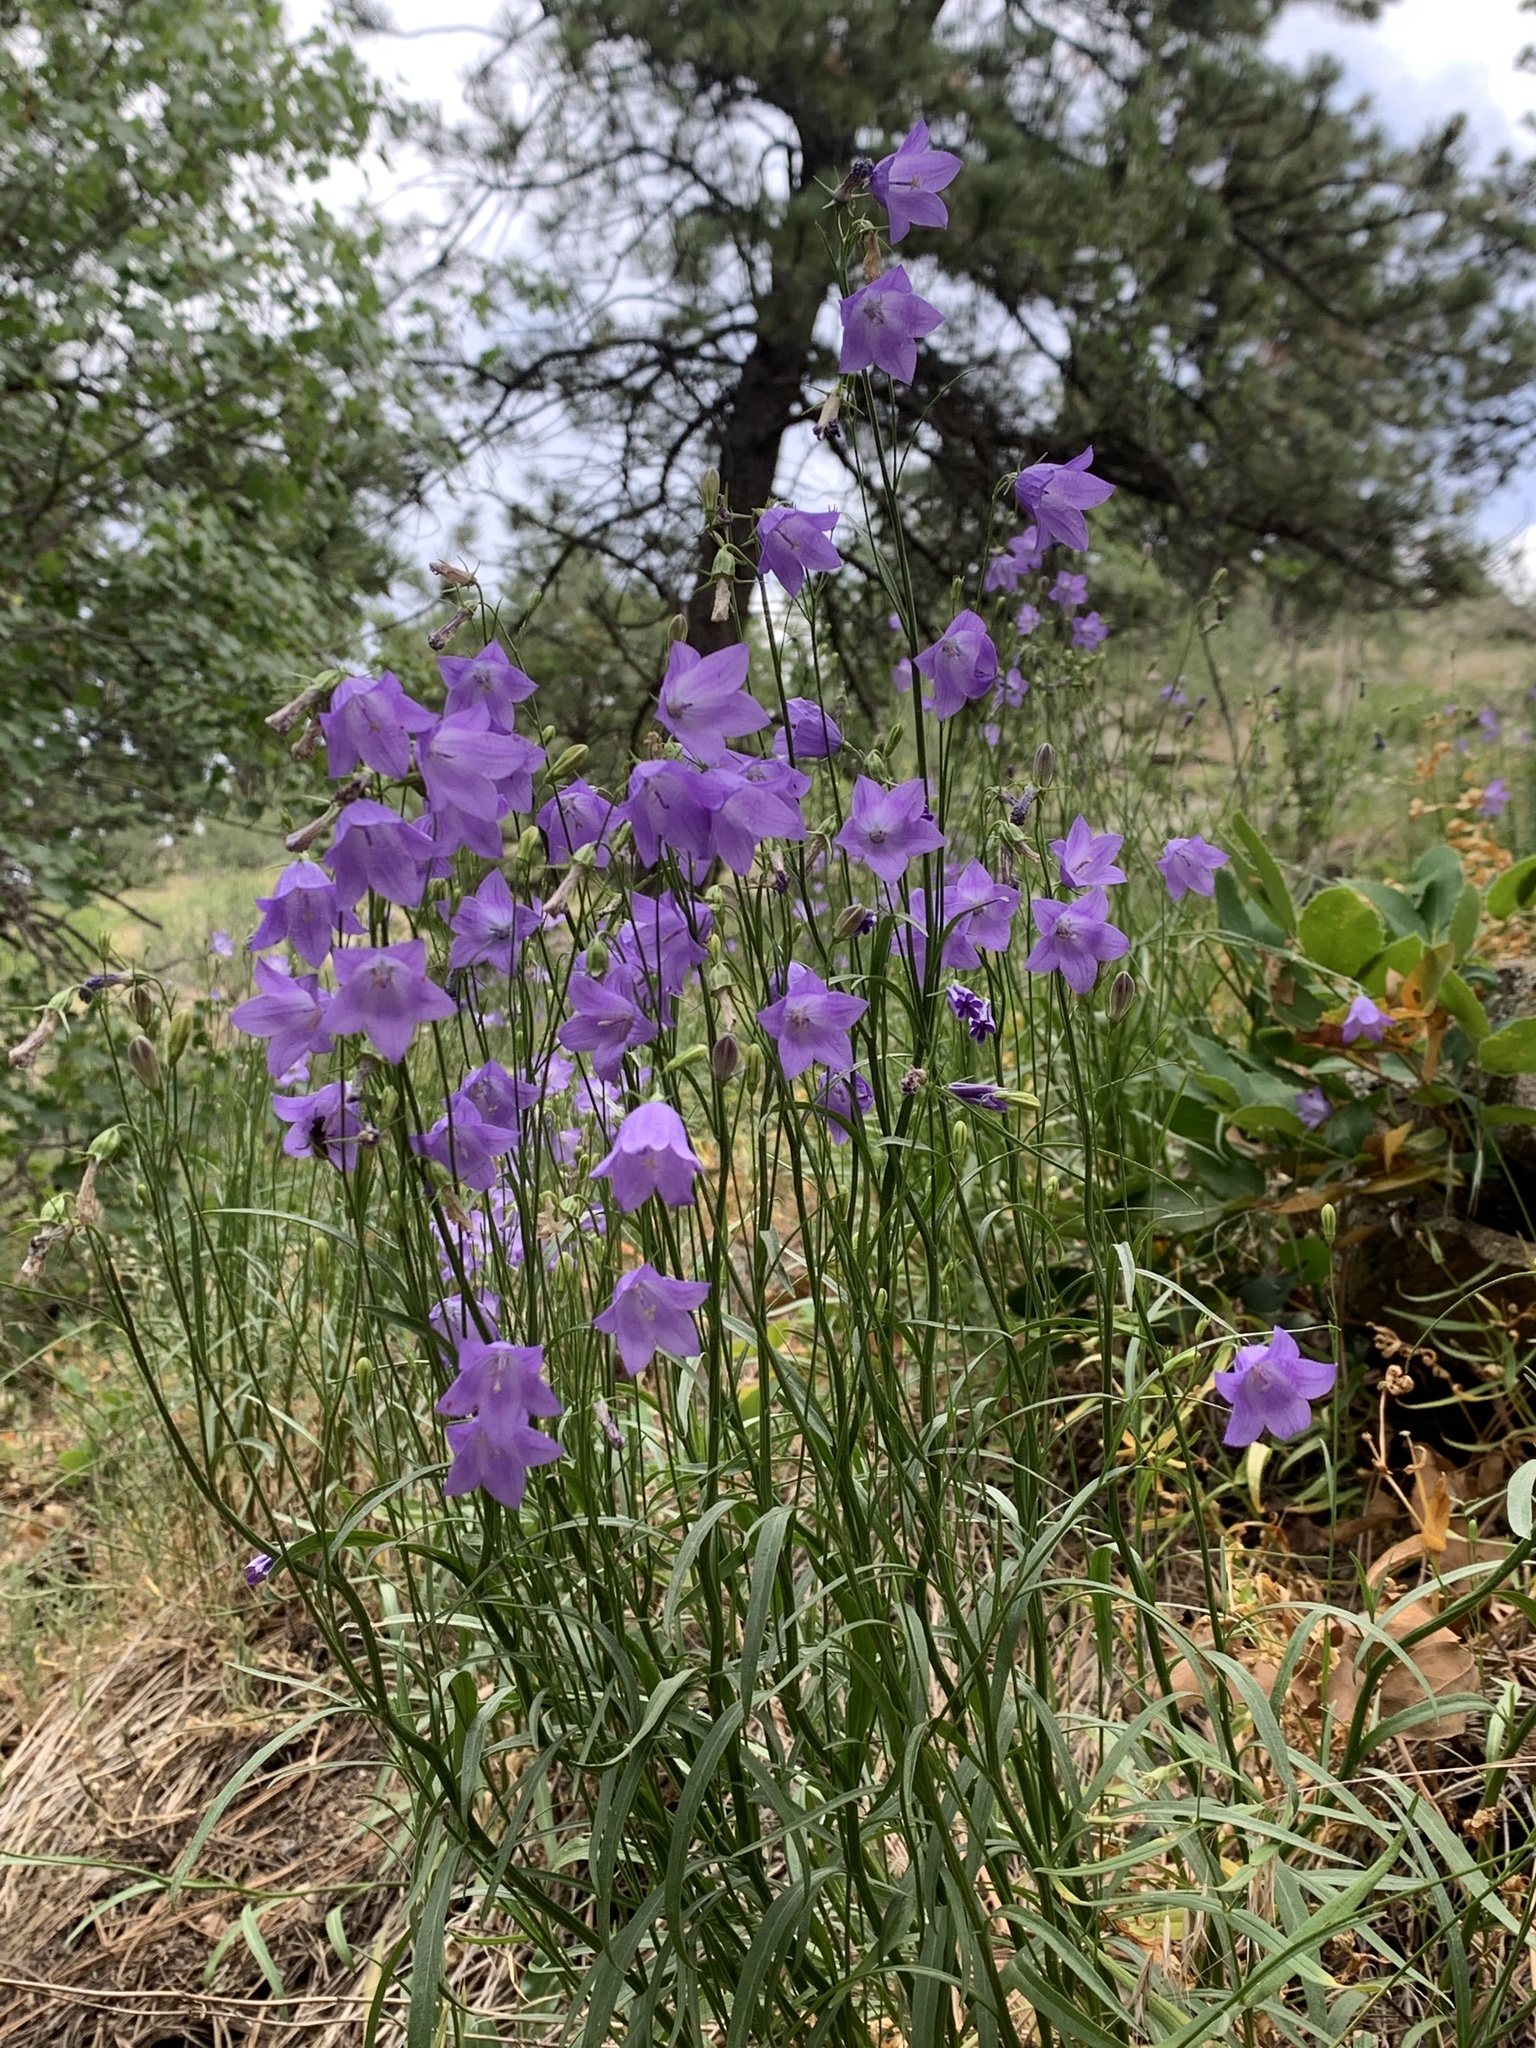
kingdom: Plantae
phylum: Tracheophyta
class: Magnoliopsida
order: Asterales
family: Campanulaceae
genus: Campanula
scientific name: Campanula petiolata
